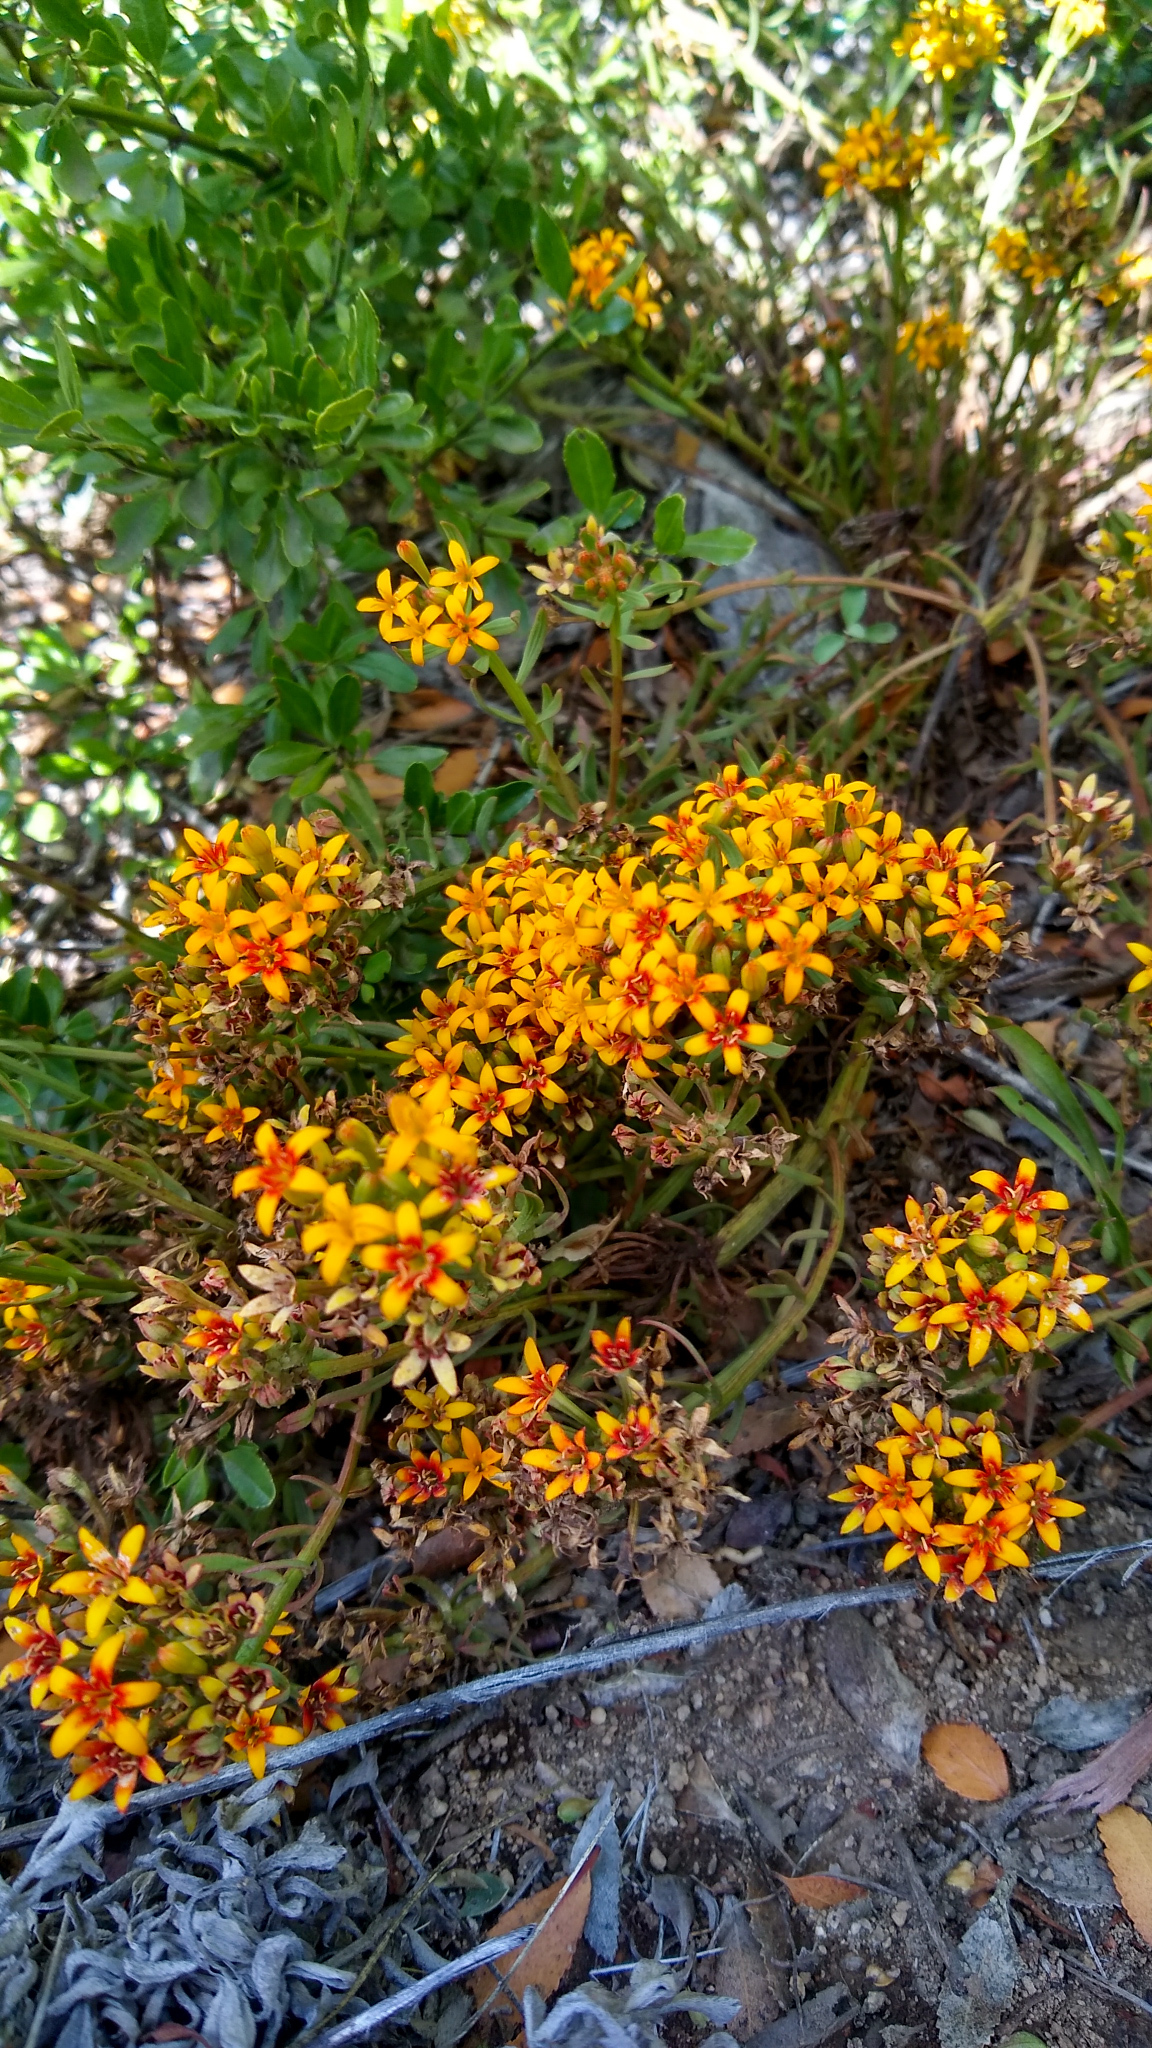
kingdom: Plantae
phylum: Tracheophyta
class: Magnoliopsida
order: Santalales
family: Schoepfiaceae
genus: Quinchamalium
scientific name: Quinchamalium chilense
